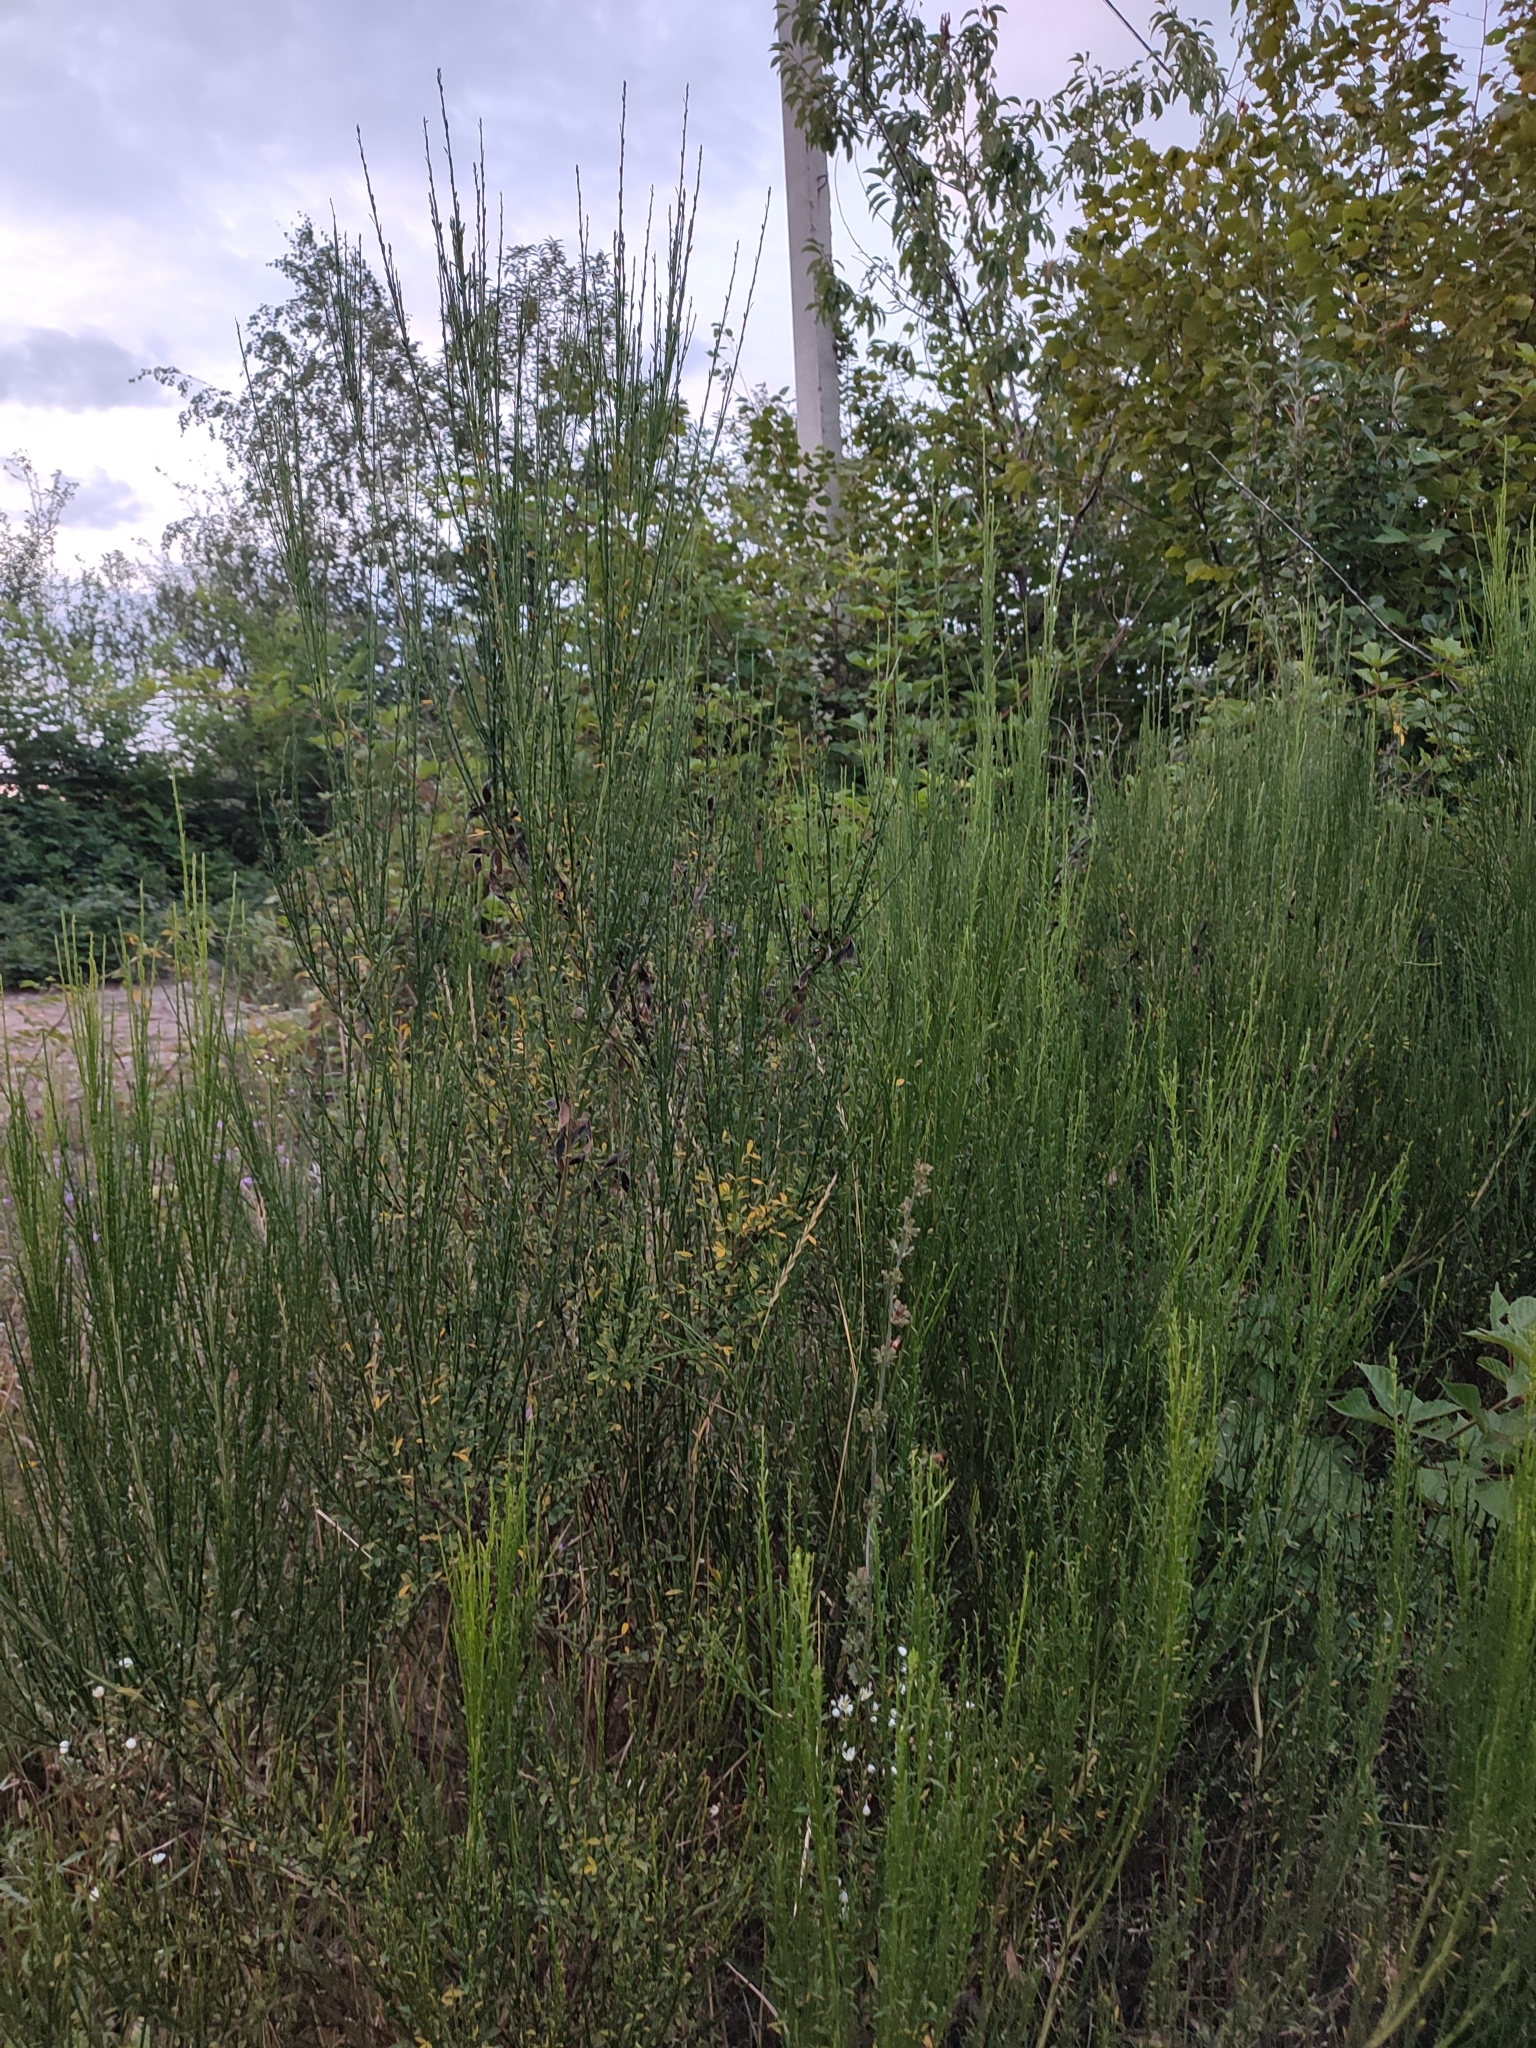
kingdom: Plantae
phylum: Tracheophyta
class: Magnoliopsida
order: Fabales
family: Fabaceae
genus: Cytisus
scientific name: Cytisus scoparius
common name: Scotch broom
